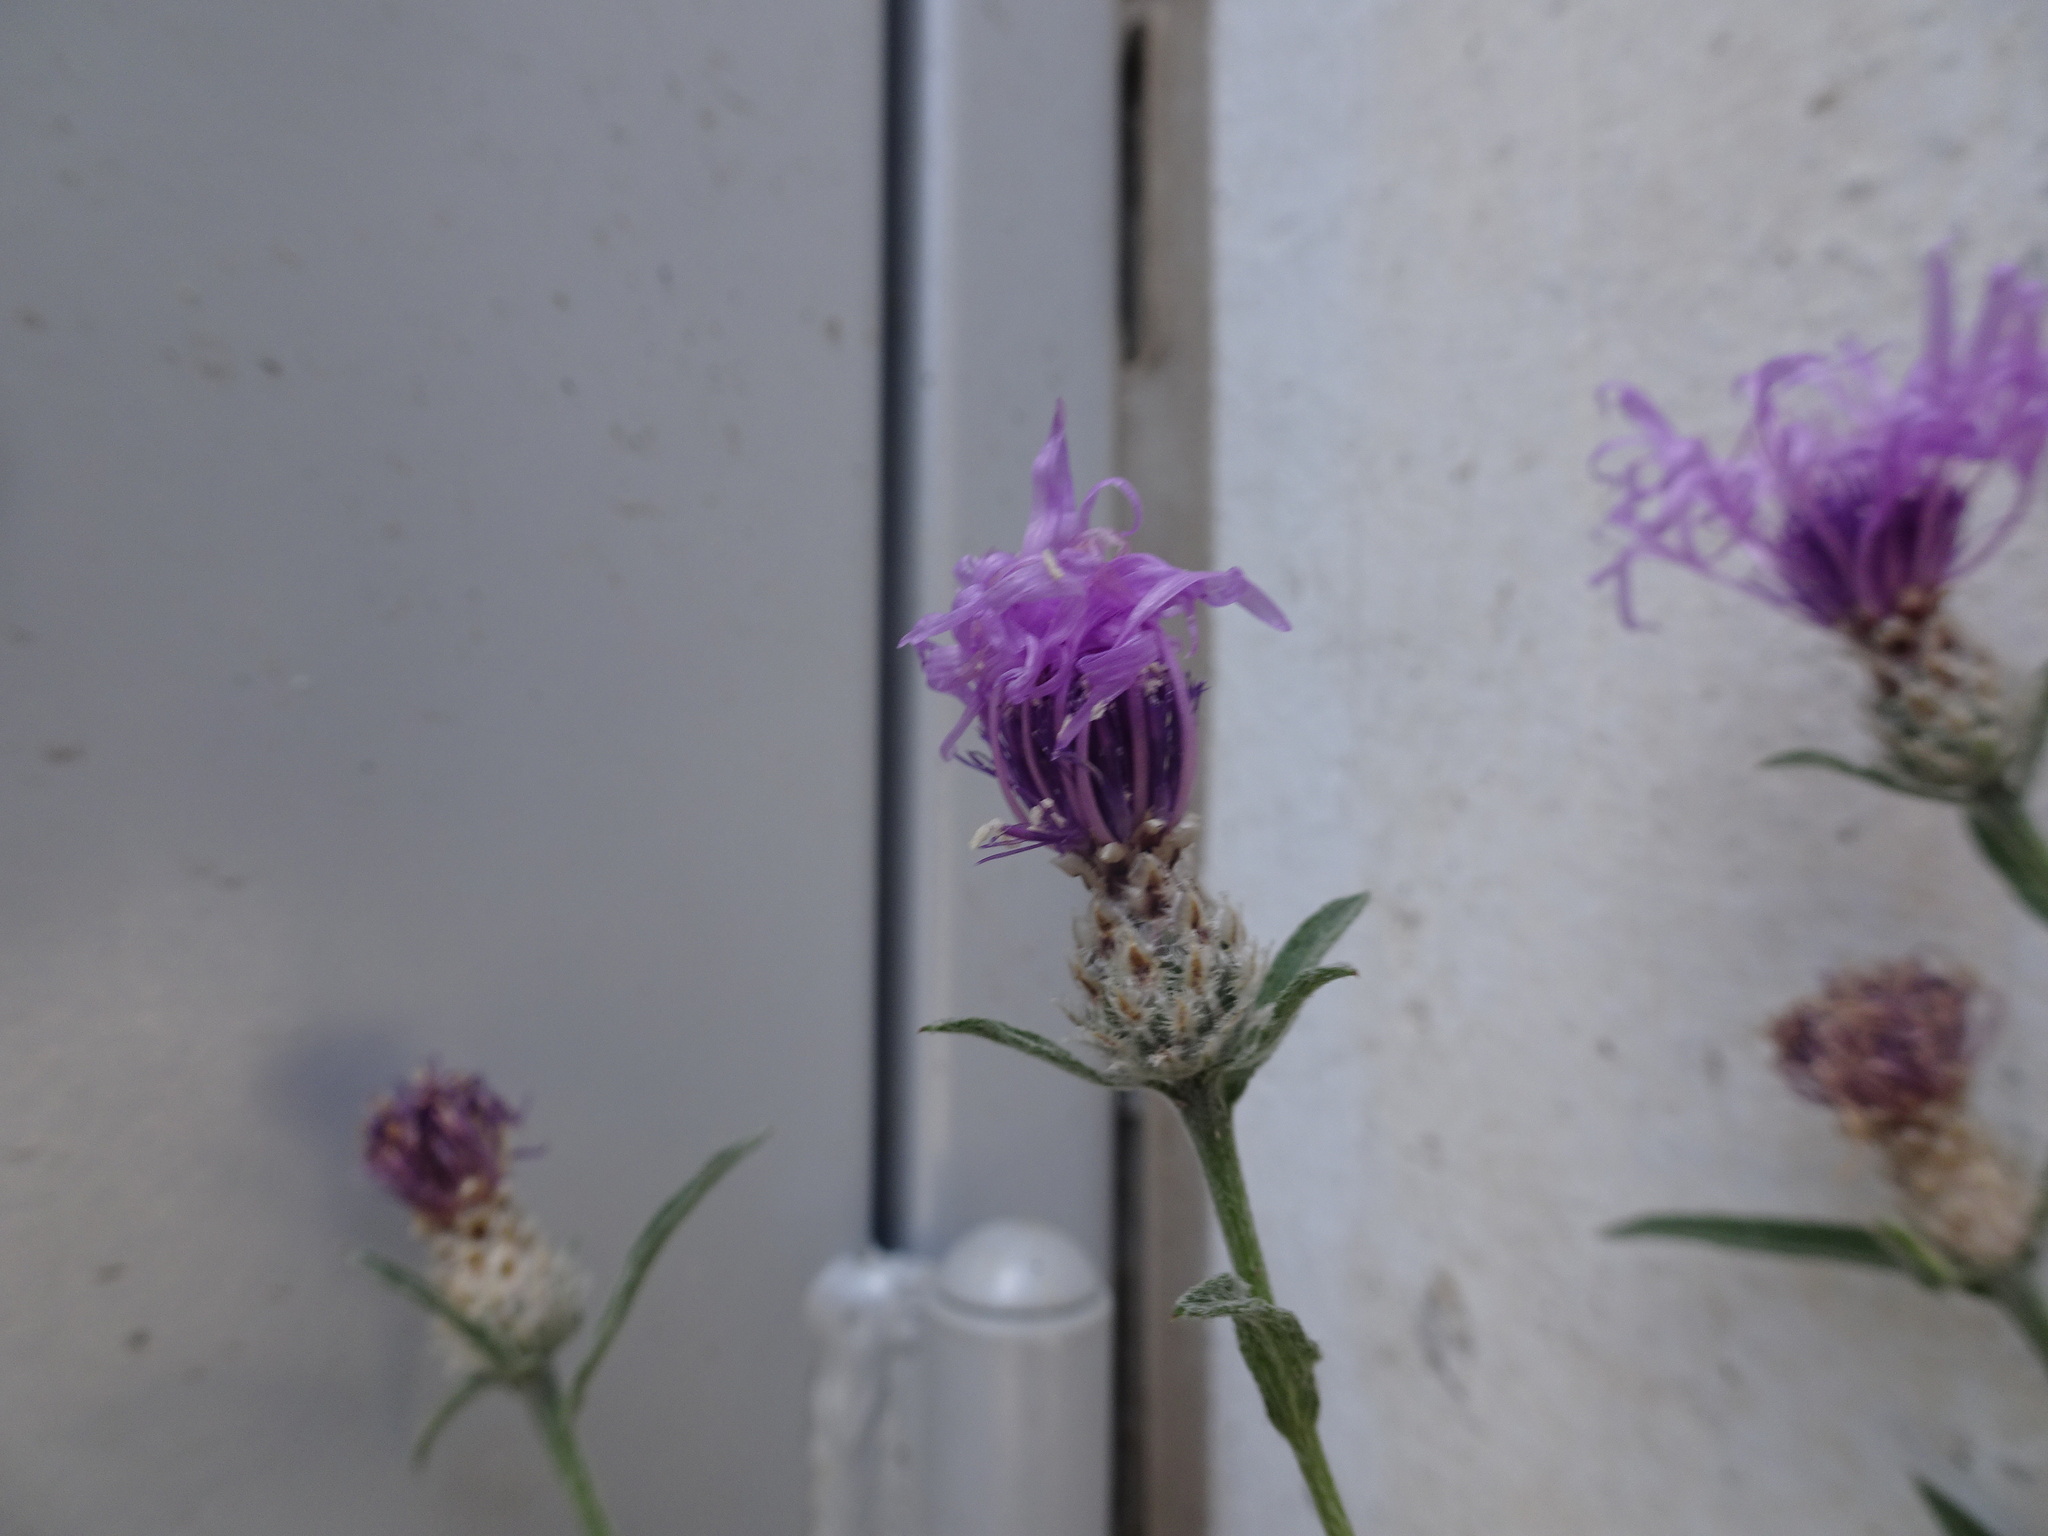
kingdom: Plantae
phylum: Tracheophyta
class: Magnoliopsida
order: Asterales
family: Asteraceae
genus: Centaurea
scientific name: Centaurea jacea
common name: Brown knapweed
